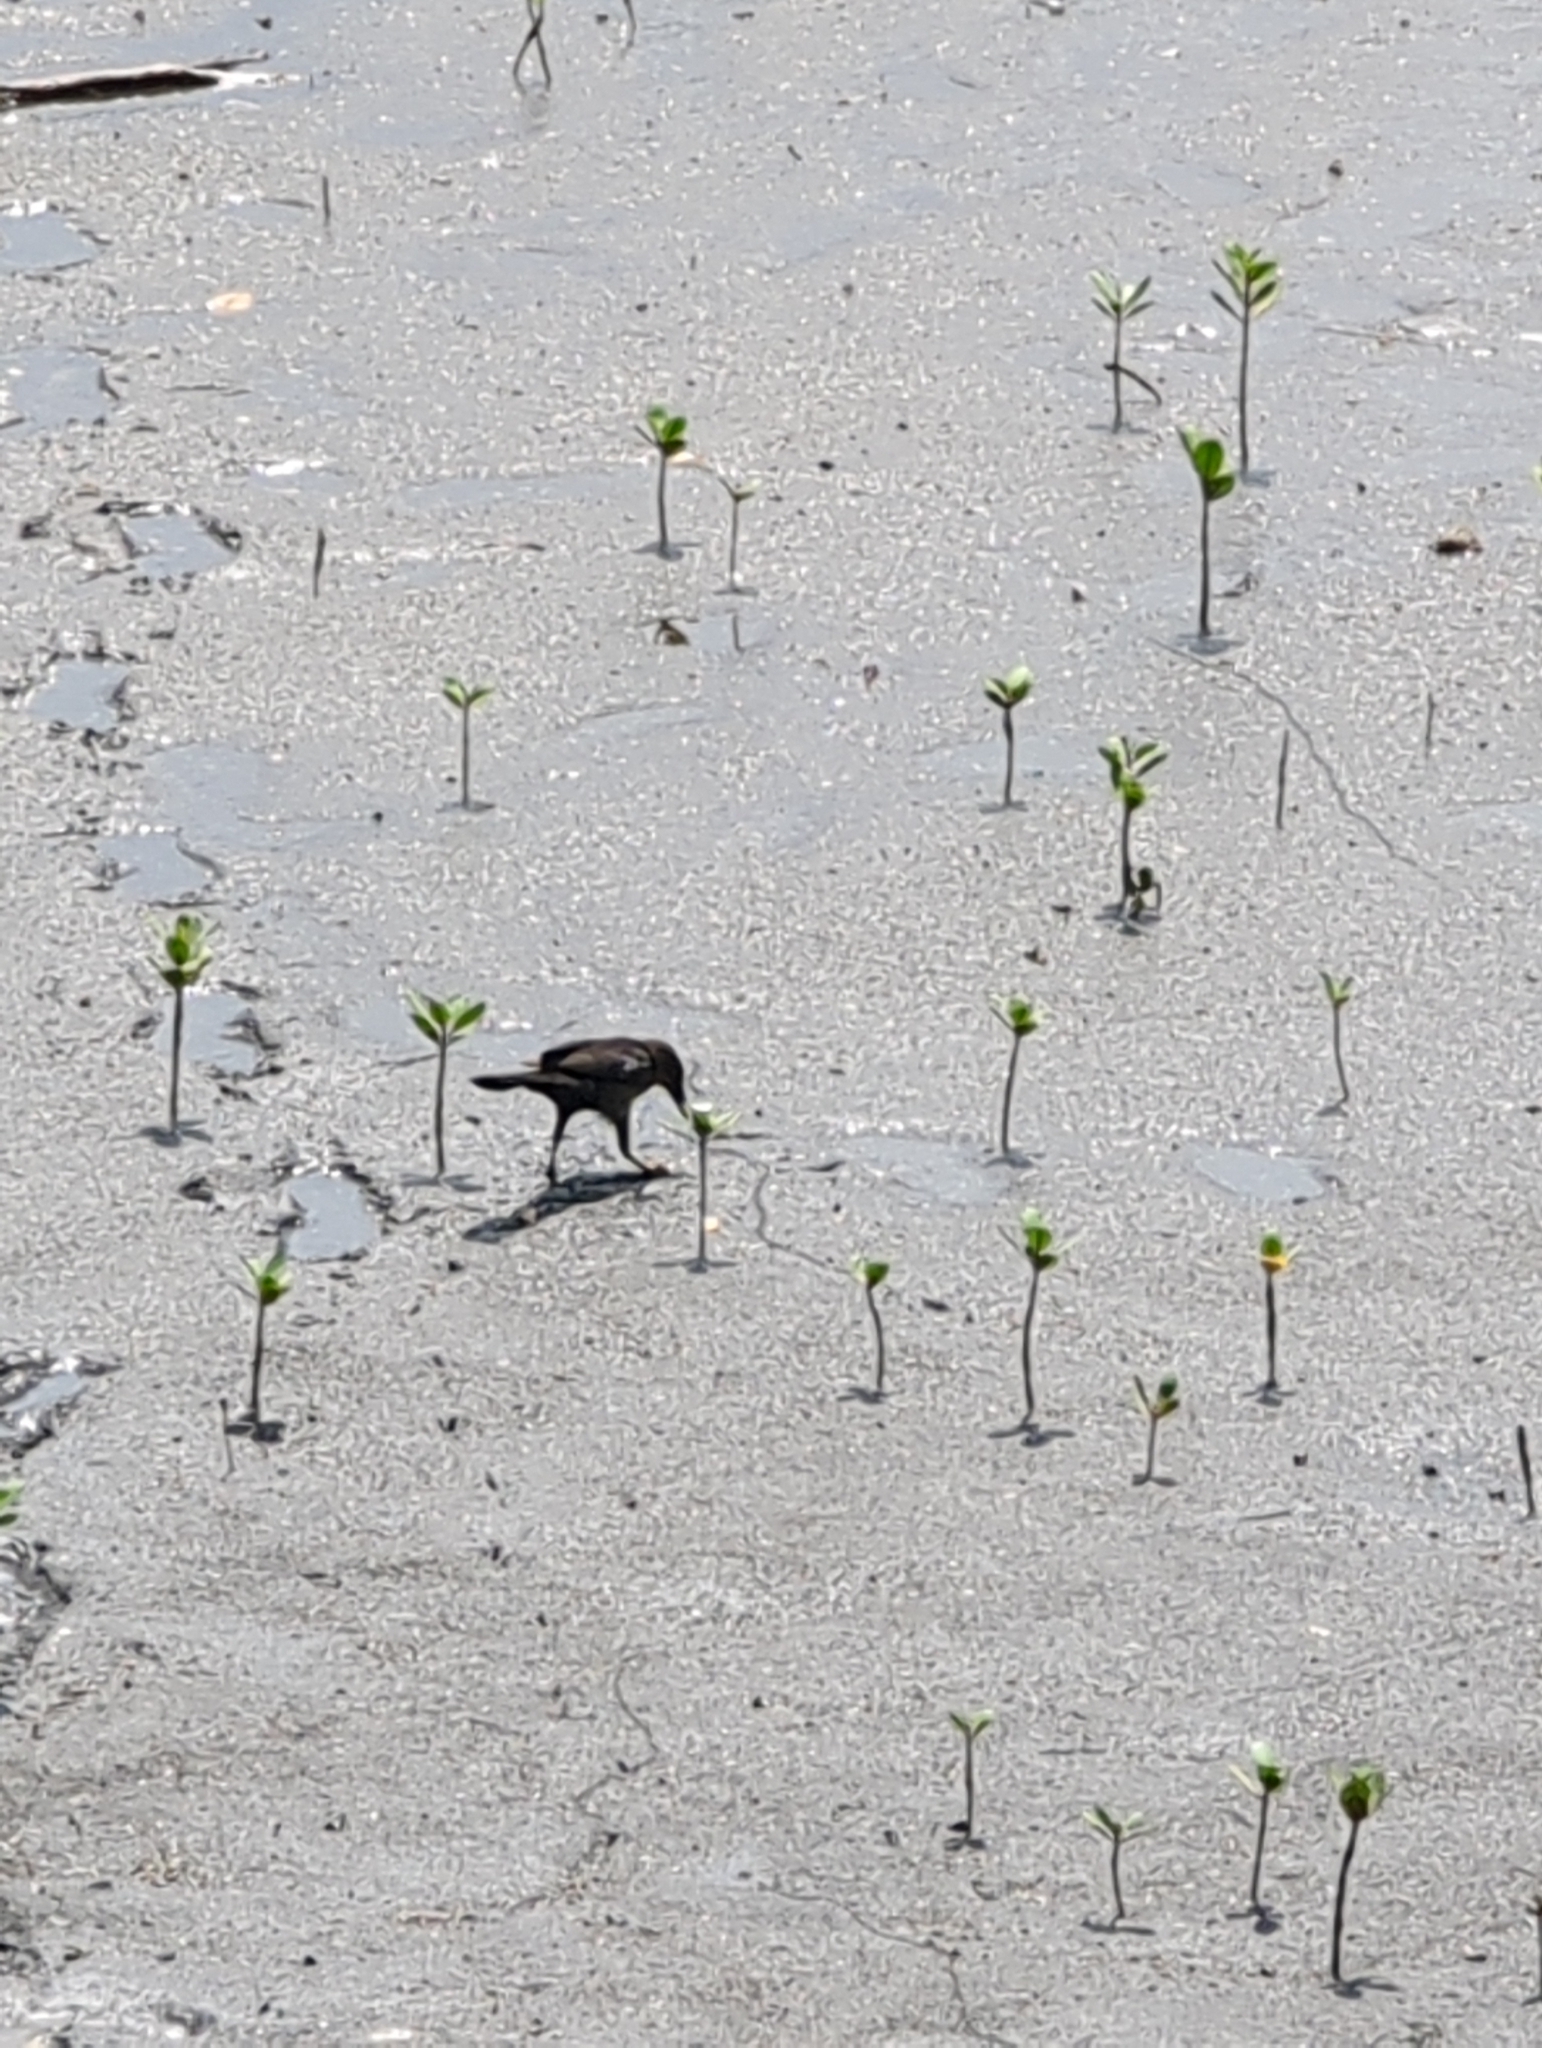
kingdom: Animalia
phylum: Chordata
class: Aves
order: Passeriformes
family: Icteridae
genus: Quiscalus
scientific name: Quiscalus mexicanus
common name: Great-tailed grackle
